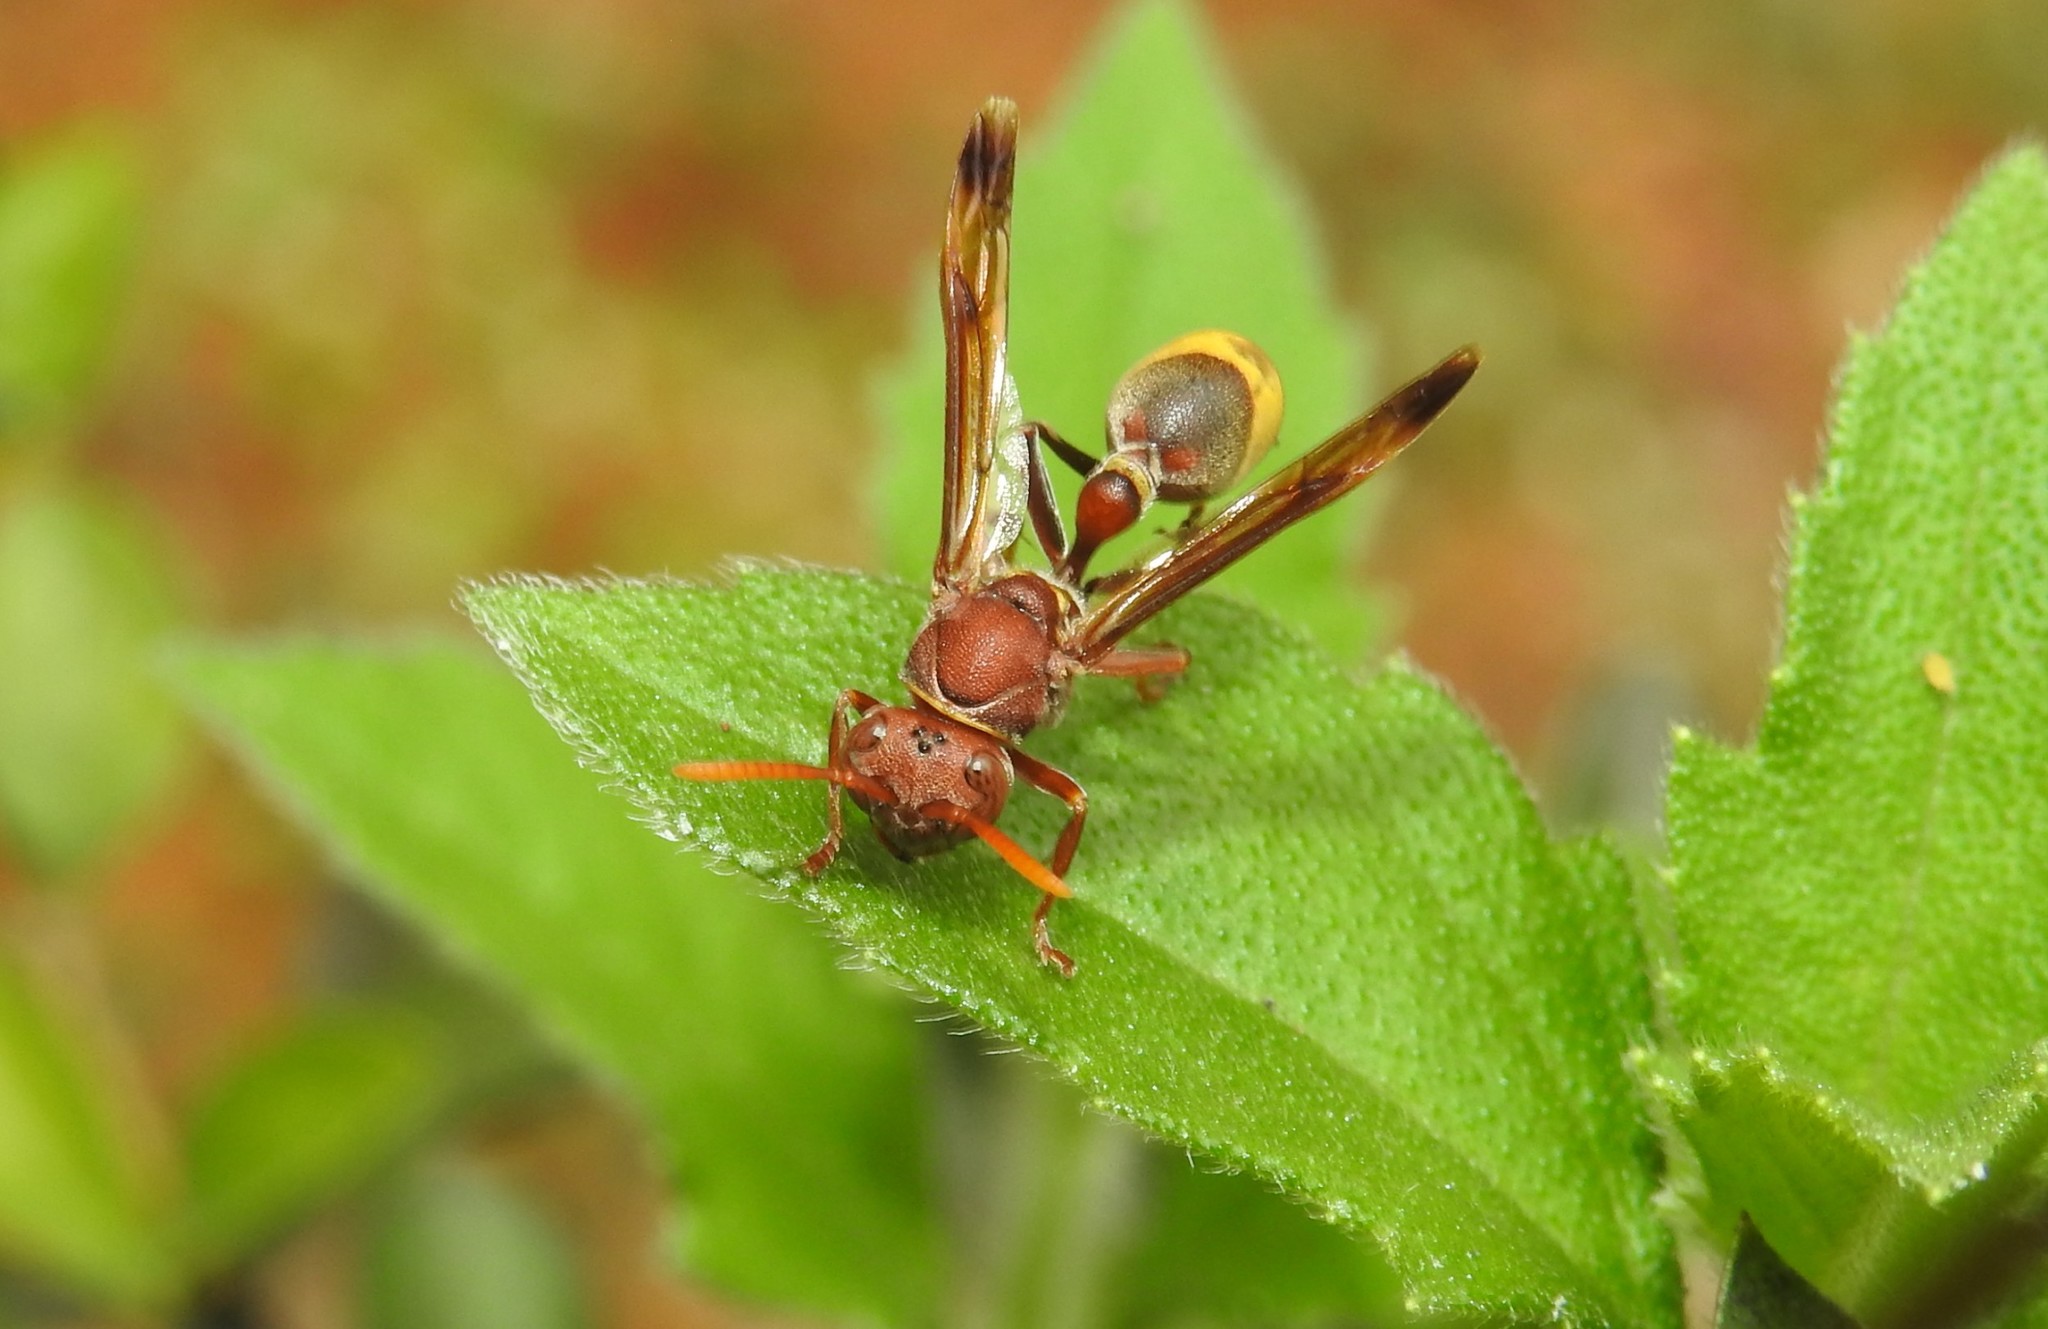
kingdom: Animalia
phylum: Arthropoda
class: Insecta
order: Hymenoptera
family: Vespidae
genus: Ropalidia
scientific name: Ropalidia
